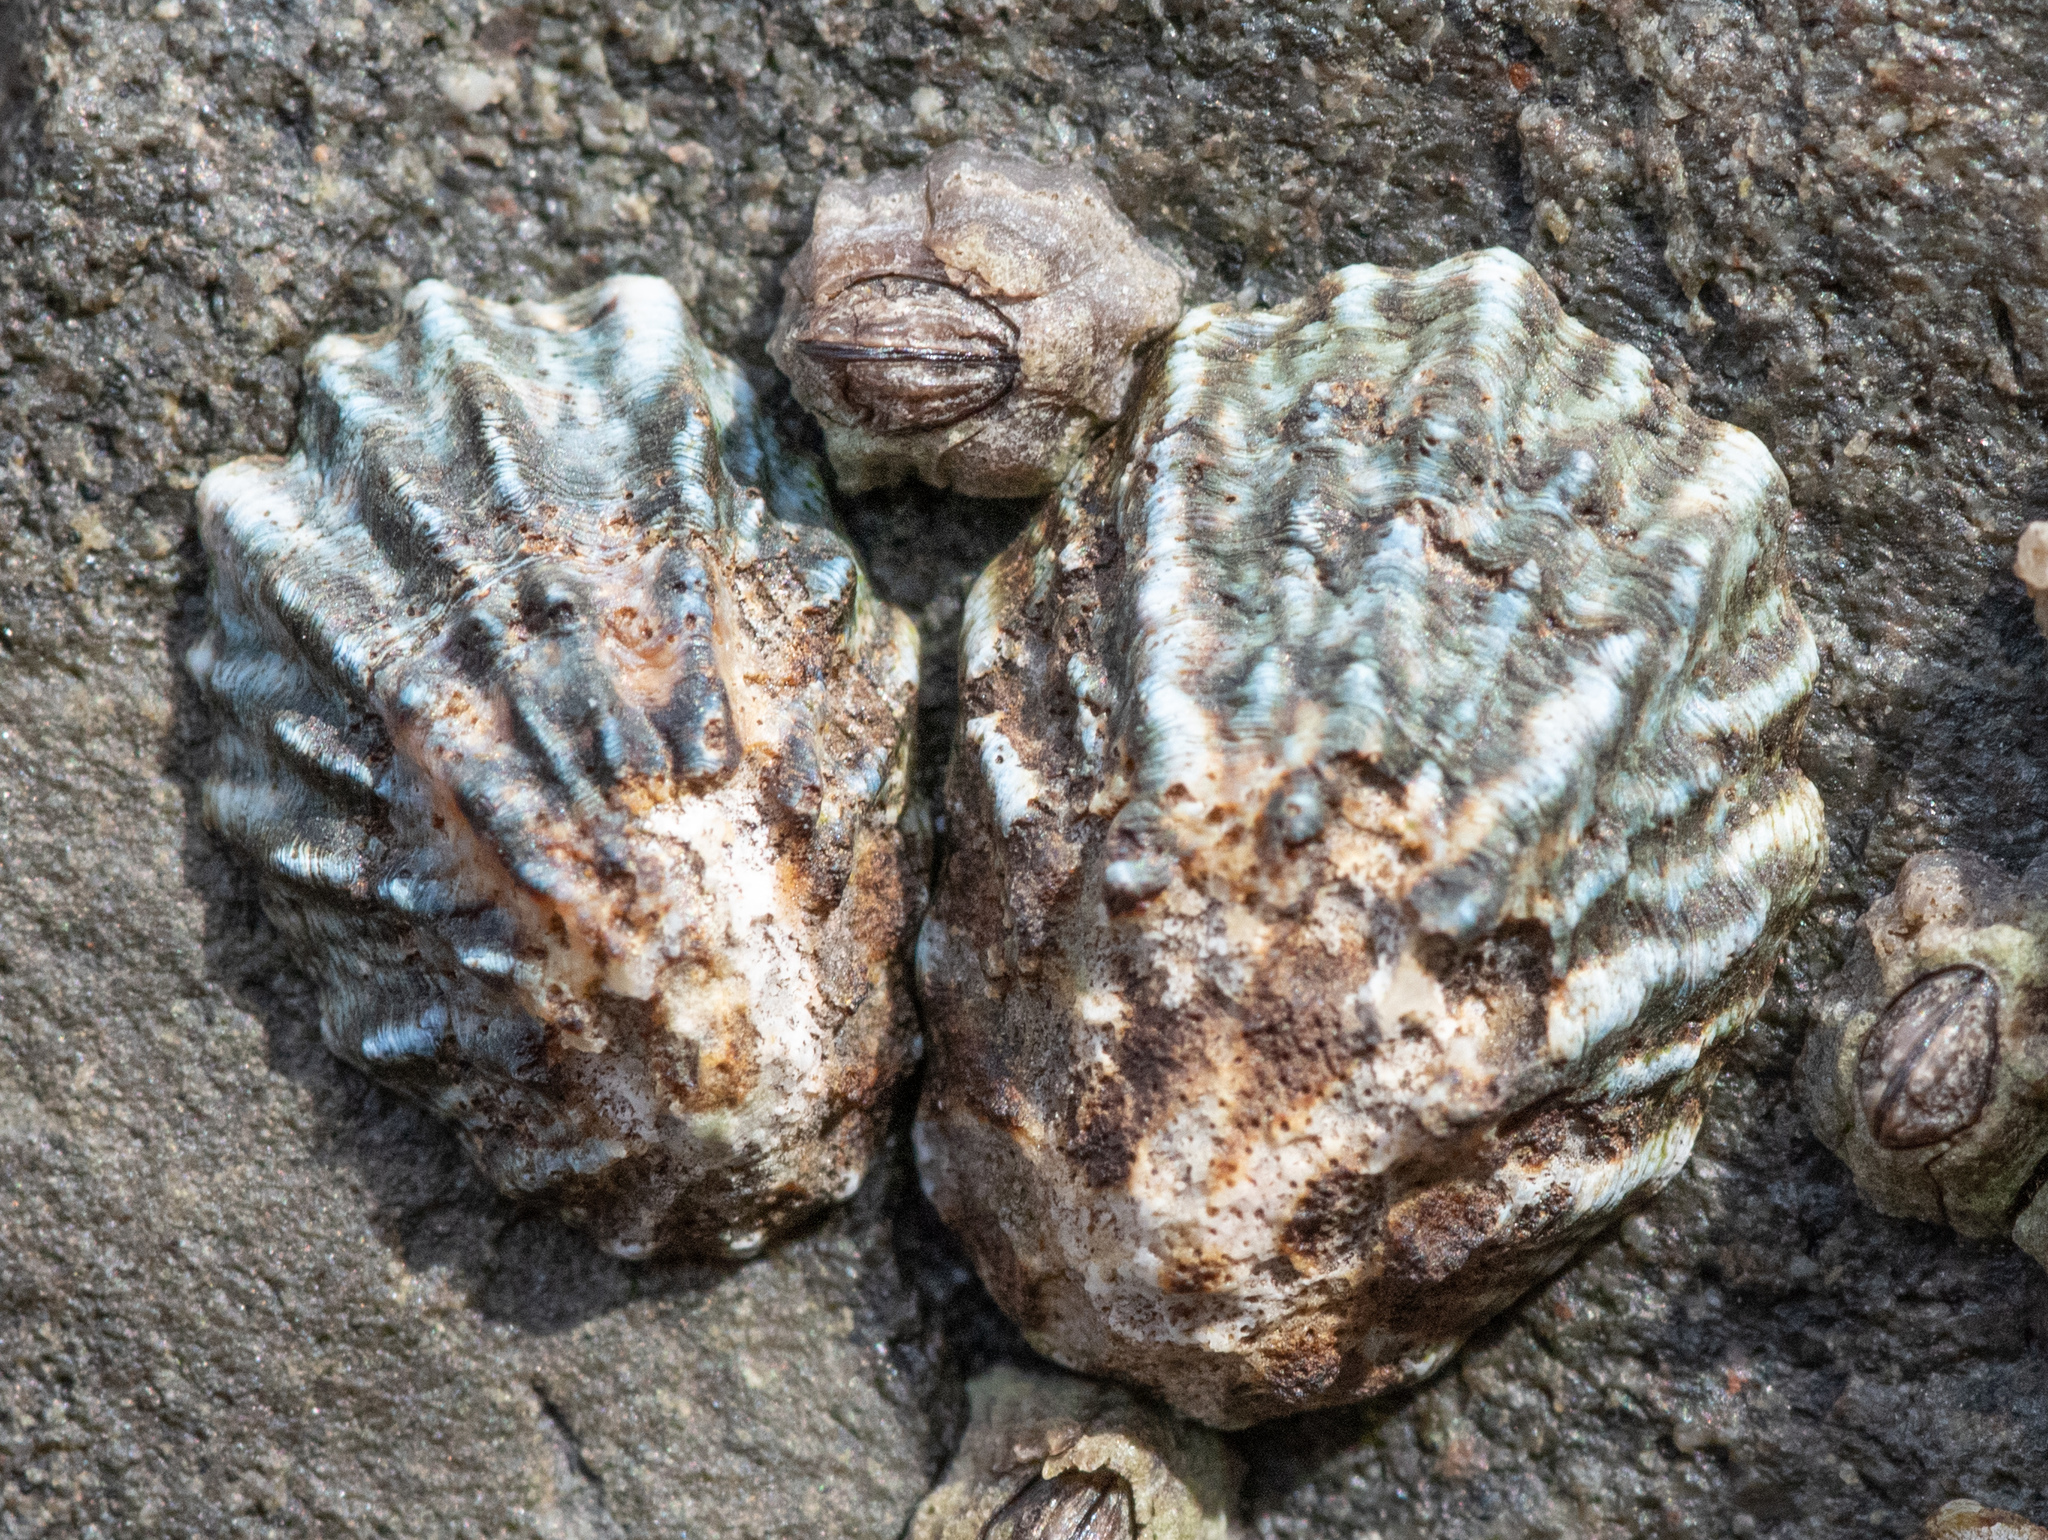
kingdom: Animalia
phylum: Mollusca
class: Gastropoda
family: Lottiidae
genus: Lottia
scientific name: Lottia scabra
